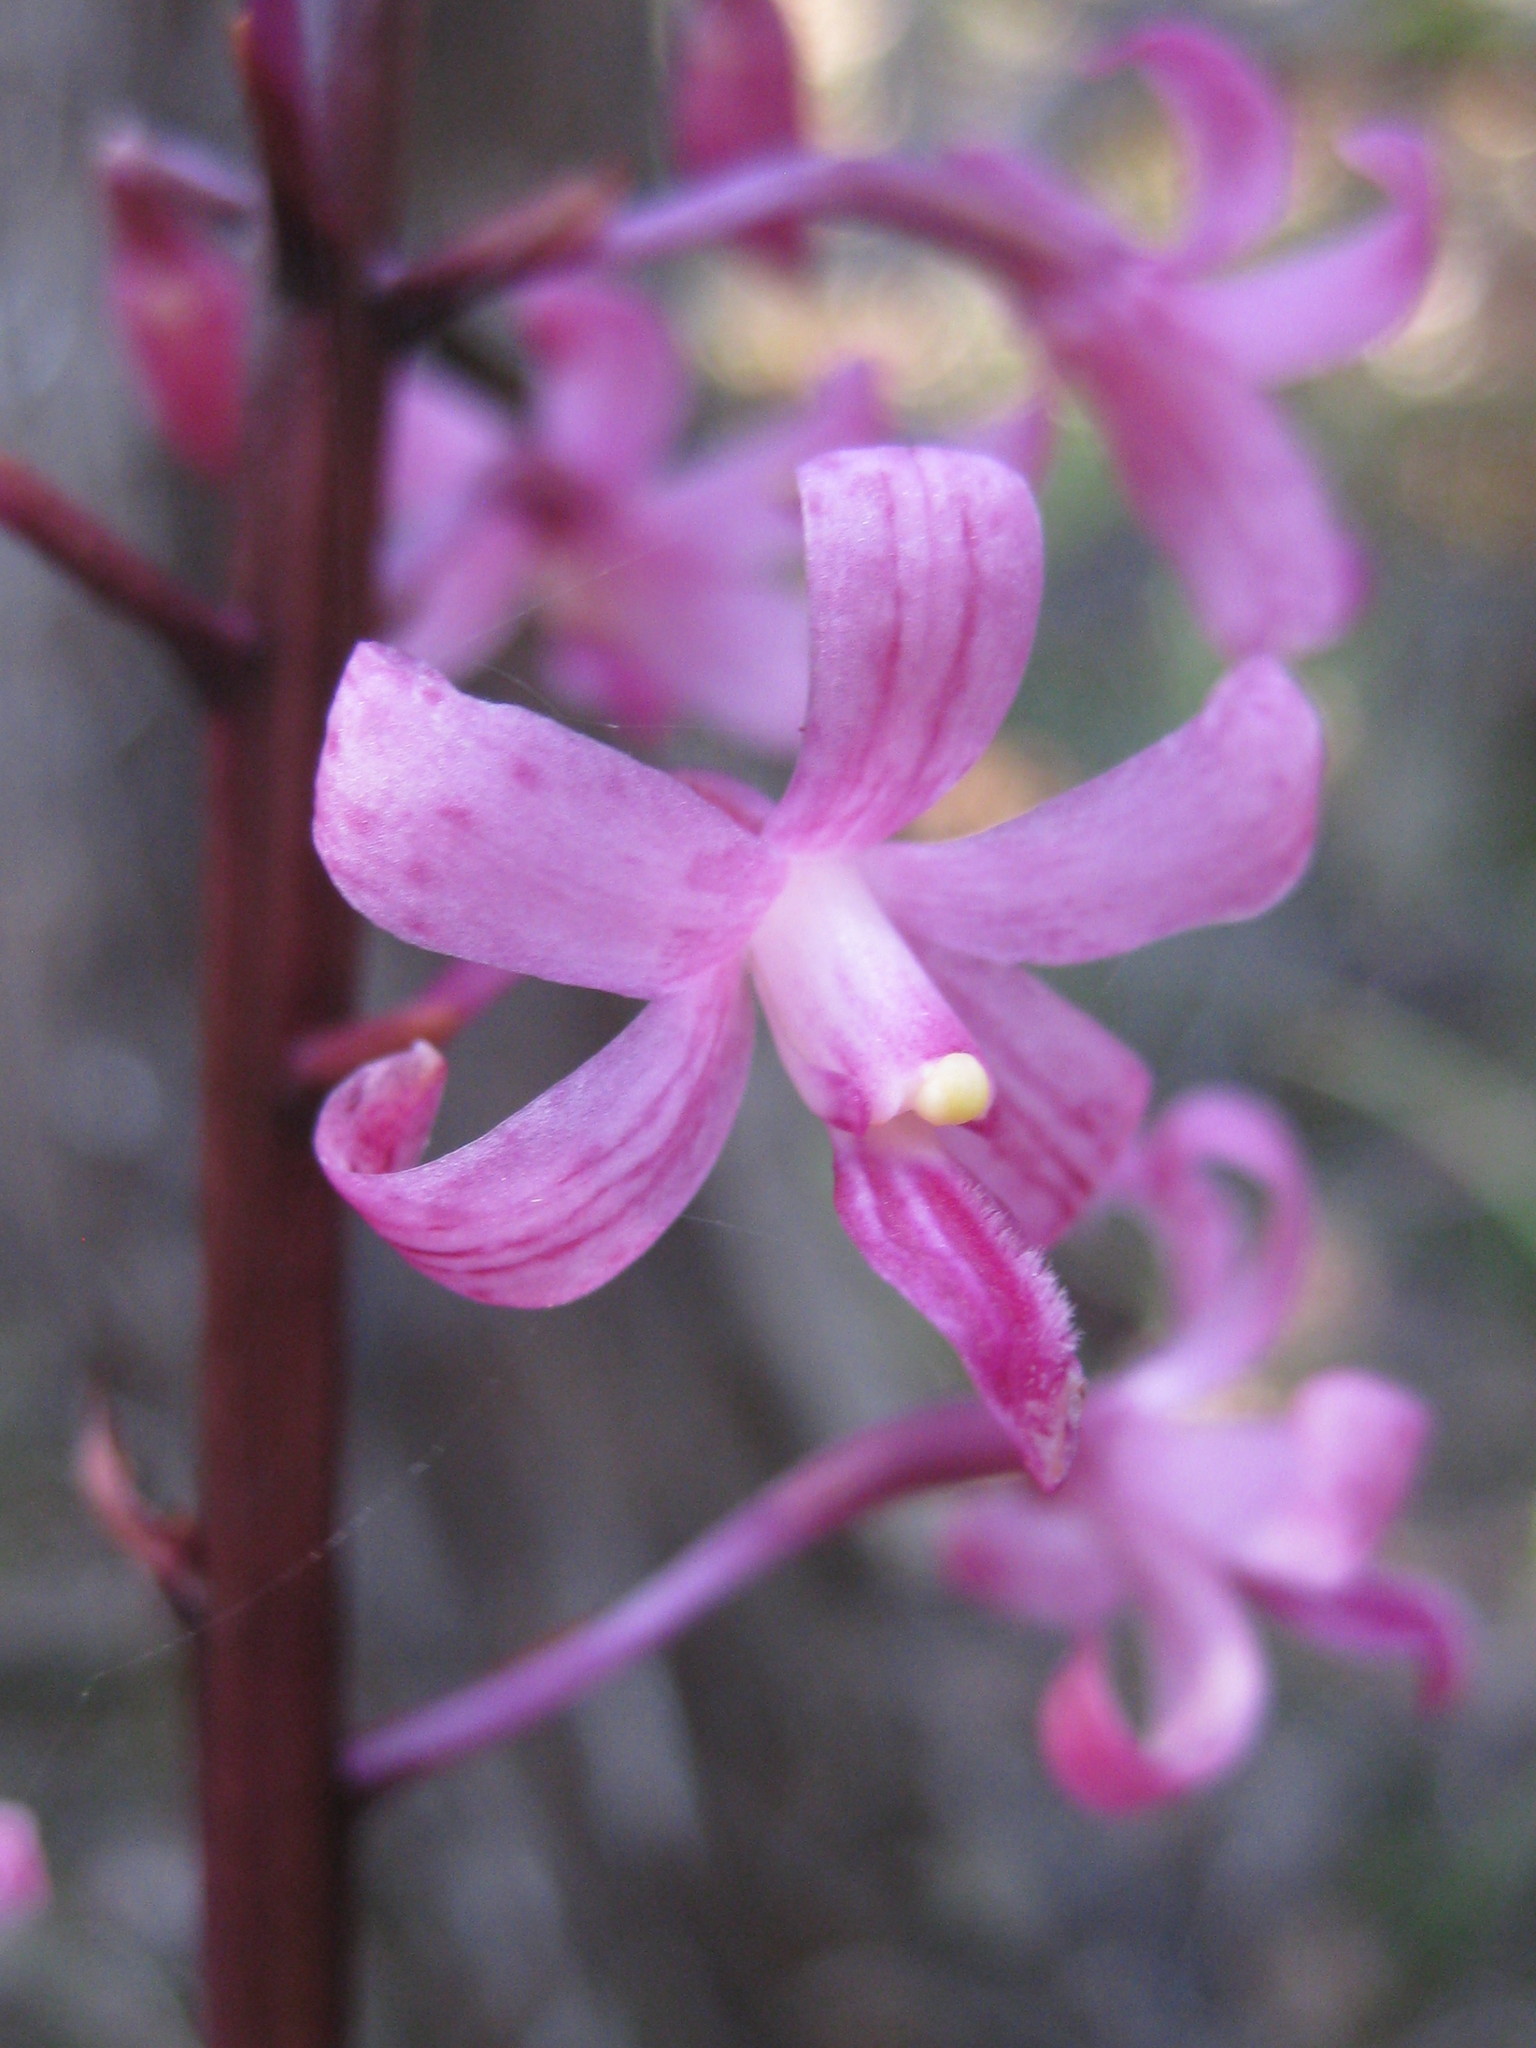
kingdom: Plantae
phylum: Tracheophyta
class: Liliopsida
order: Asparagales
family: Orchidaceae
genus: Dipodium
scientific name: Dipodium roseum
